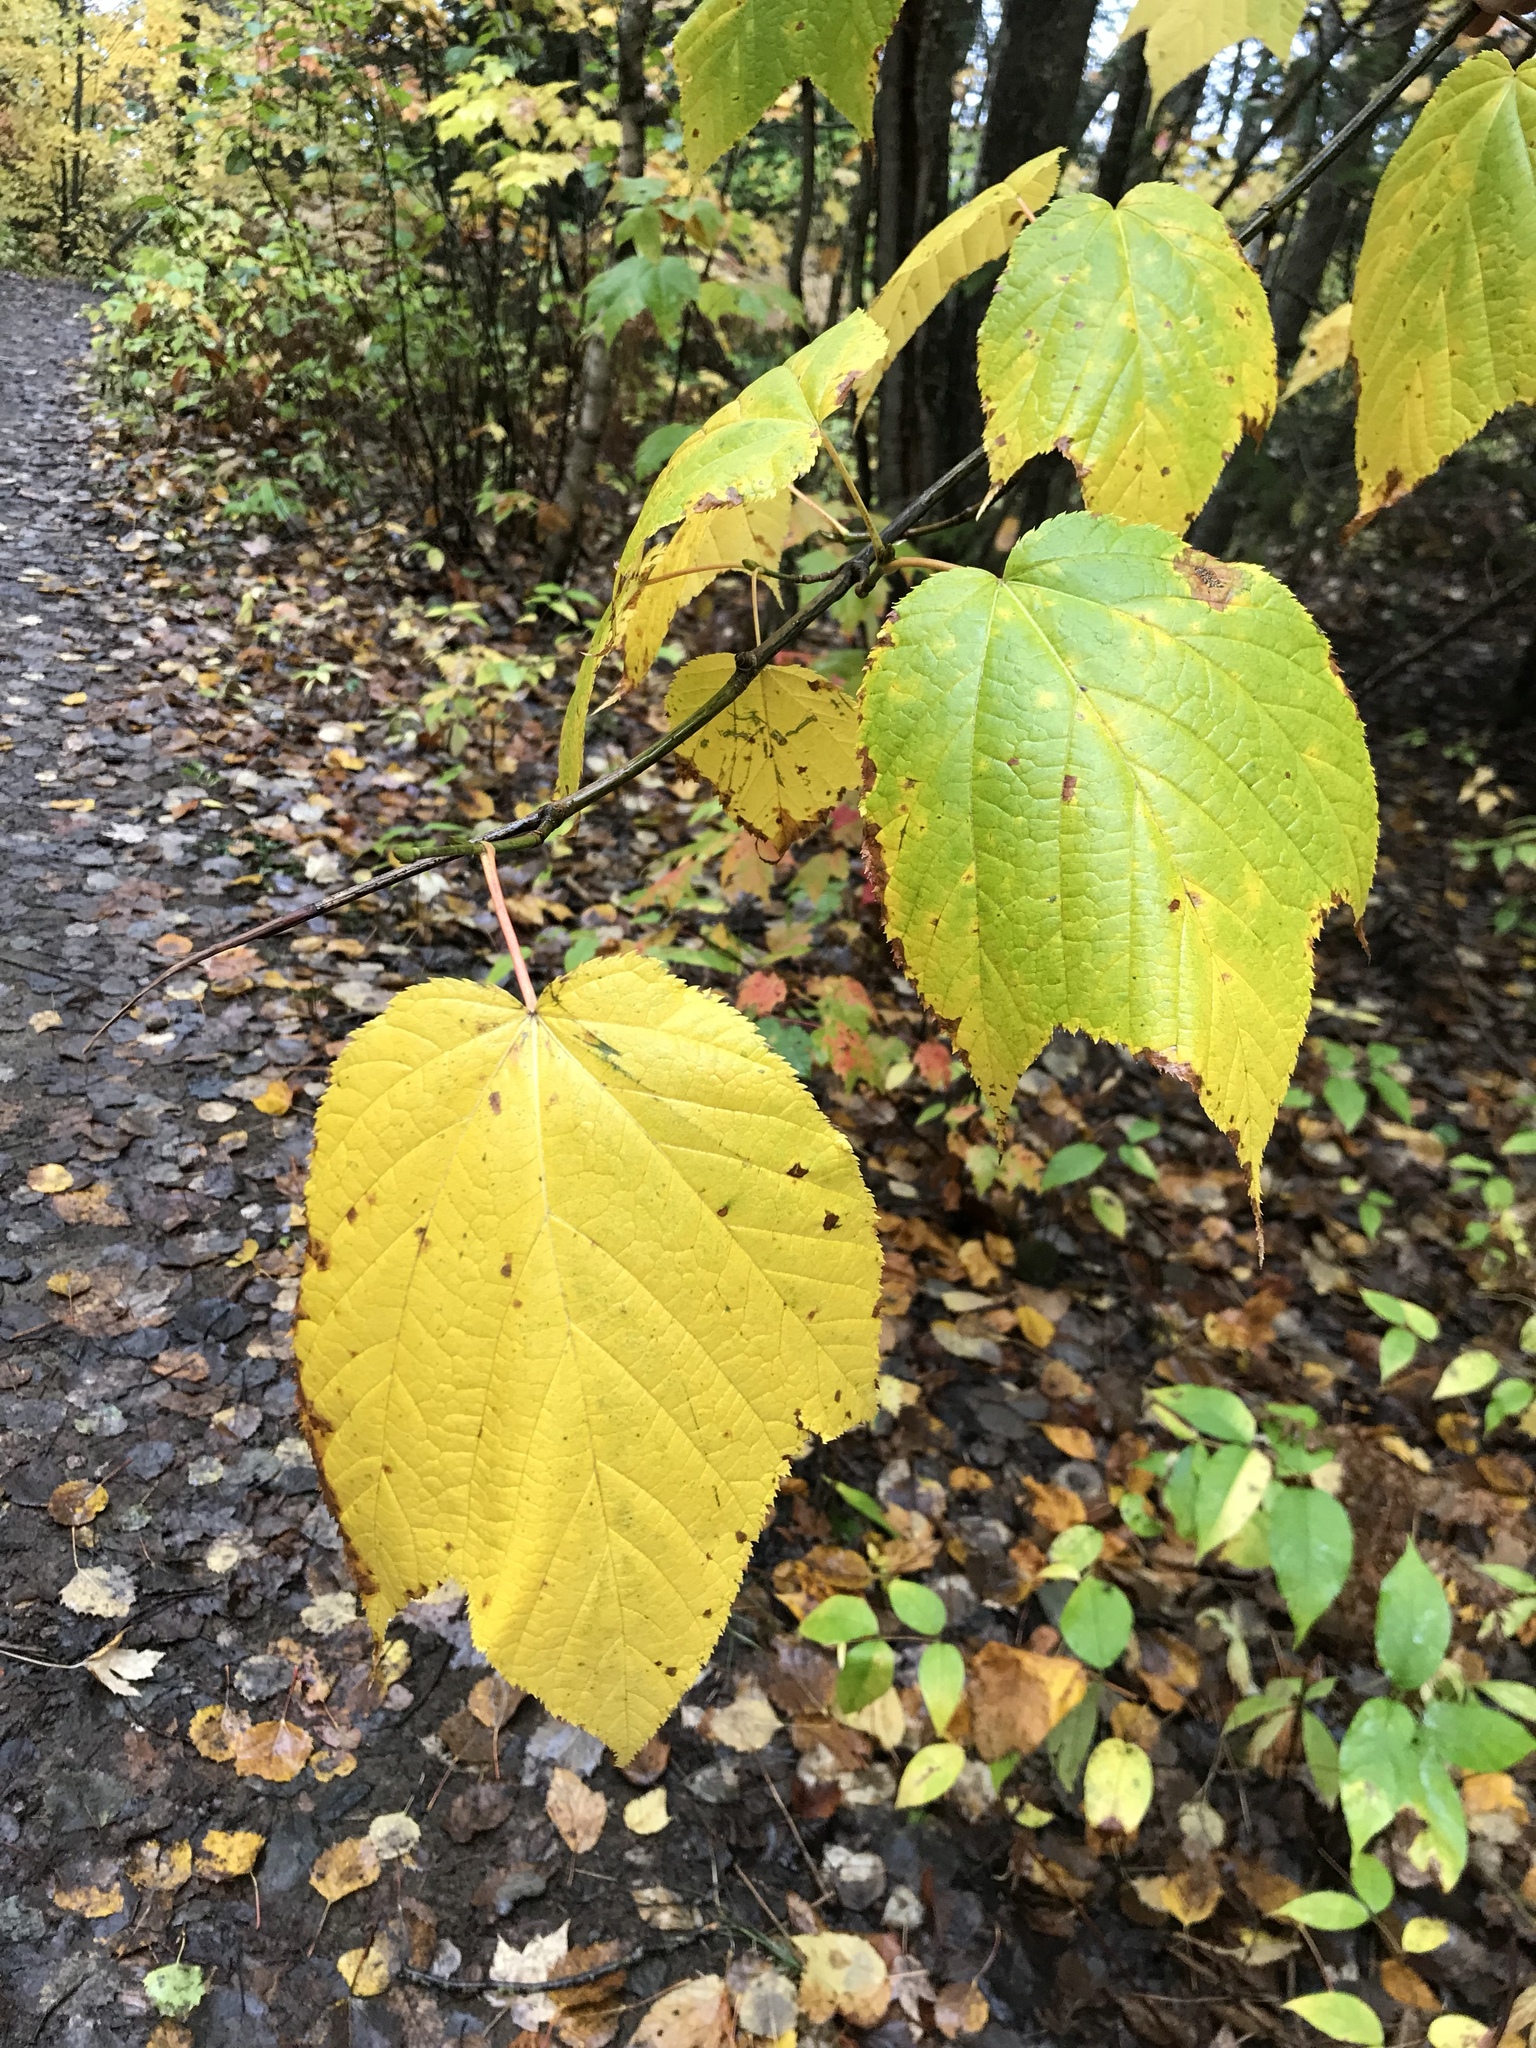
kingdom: Plantae
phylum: Tracheophyta
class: Magnoliopsida
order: Sapindales
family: Sapindaceae
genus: Acer
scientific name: Acer pensylvanicum
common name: Moosewood
